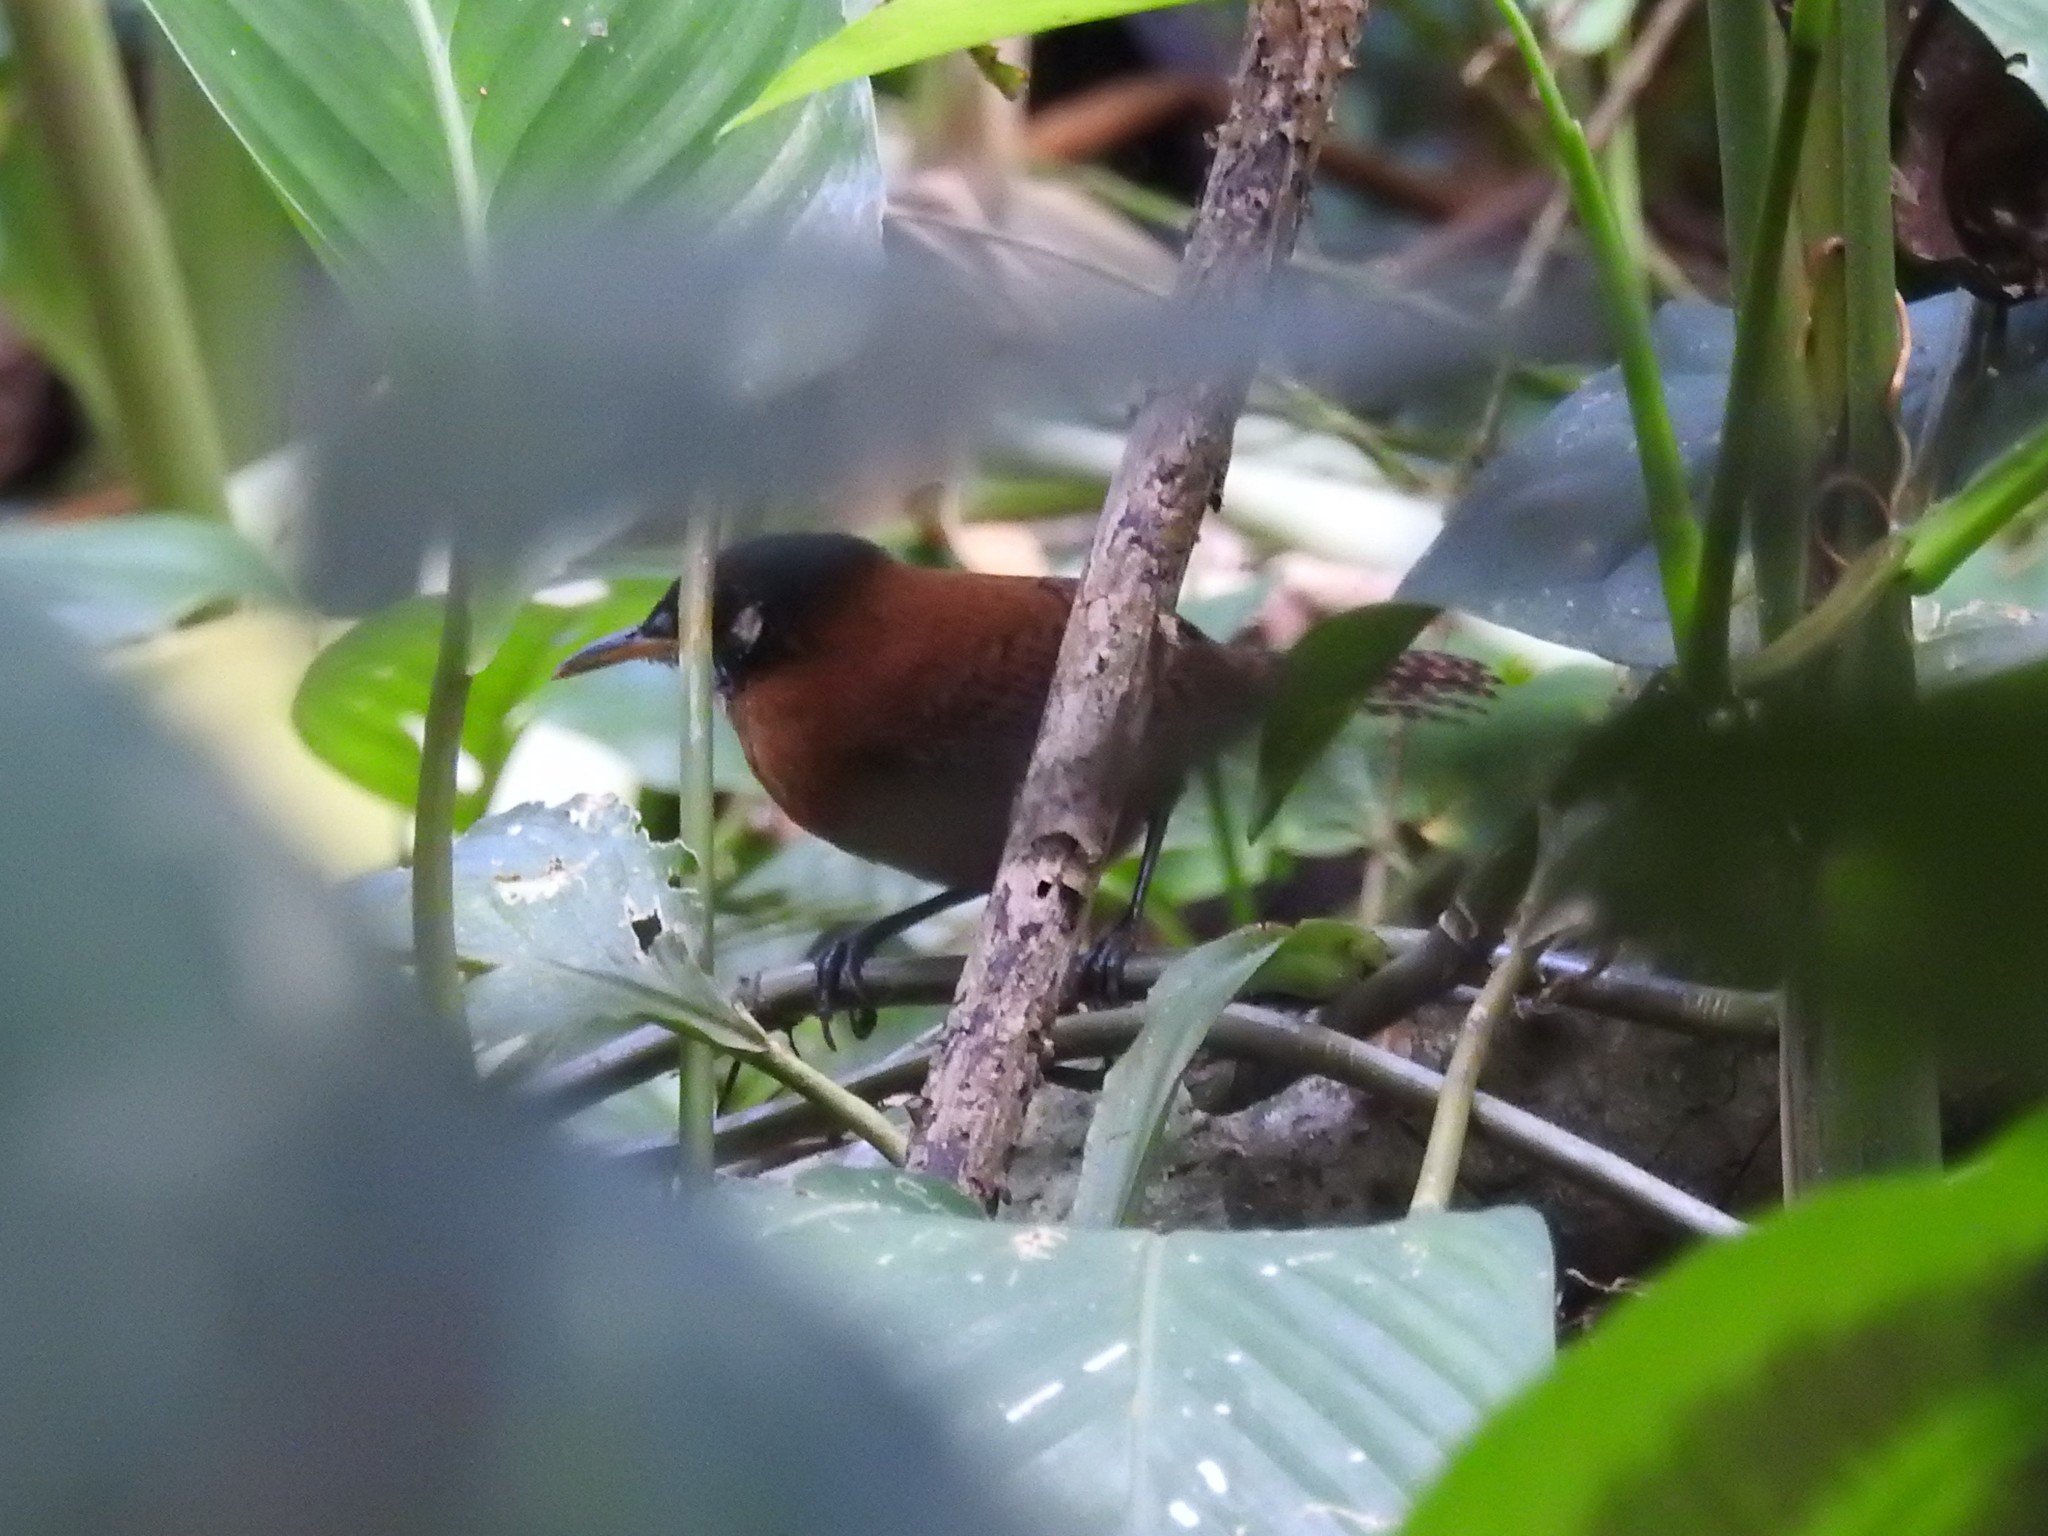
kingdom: Animalia
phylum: Chordata
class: Aves
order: Passeriformes
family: Troglodytidae
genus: Cantorchilus
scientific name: Cantorchilus nigricapillus
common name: Bay wren
